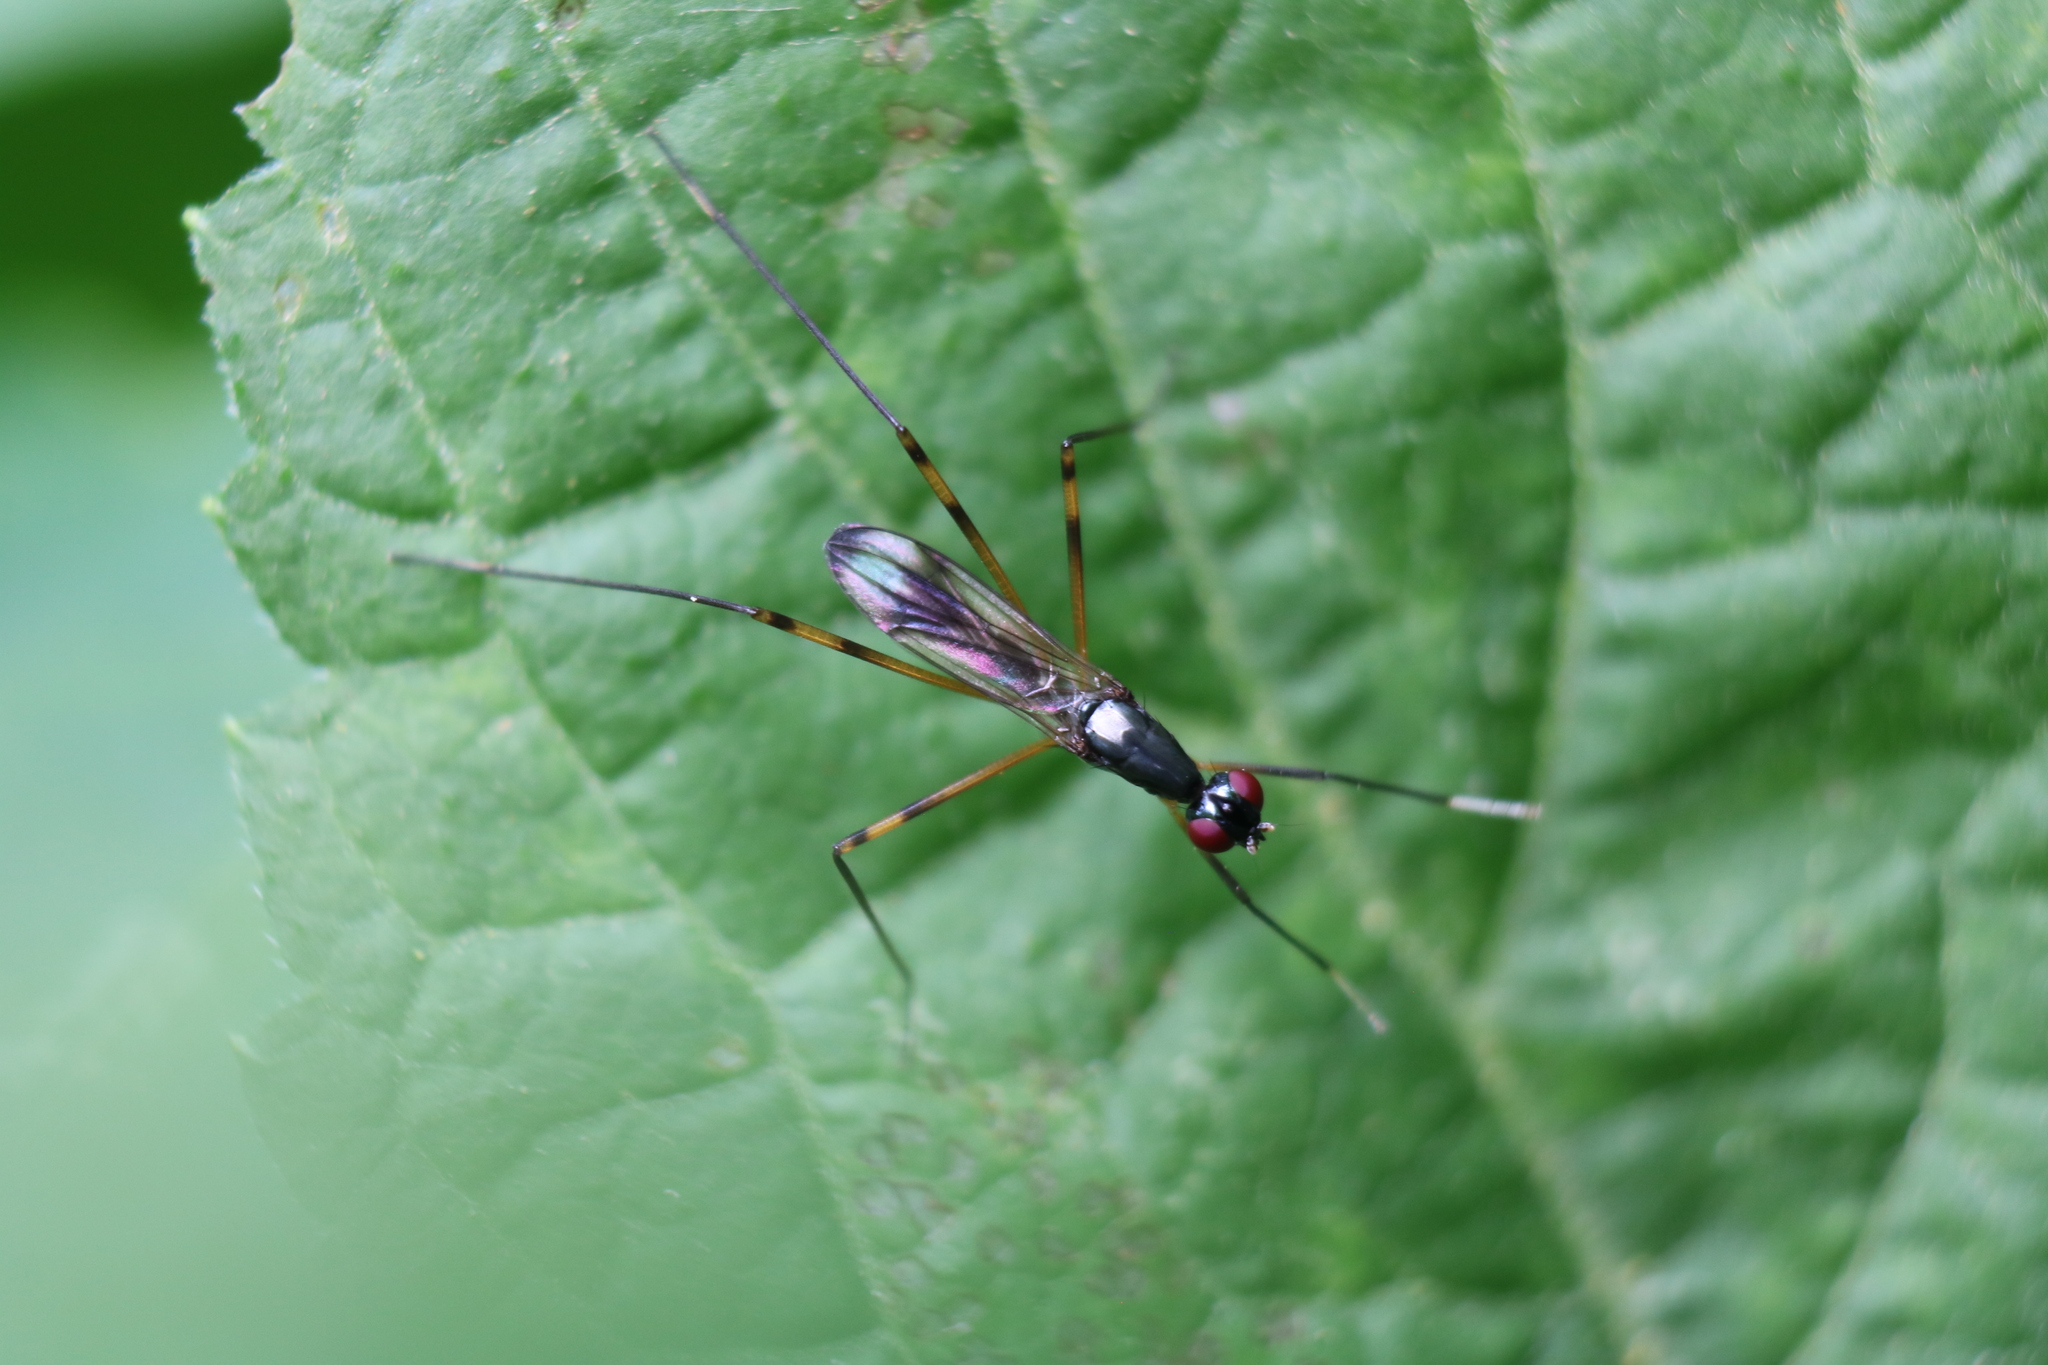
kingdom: Animalia
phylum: Arthropoda
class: Insecta
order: Diptera
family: Micropezidae
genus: Rainieria
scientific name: Rainieria antennaepes
